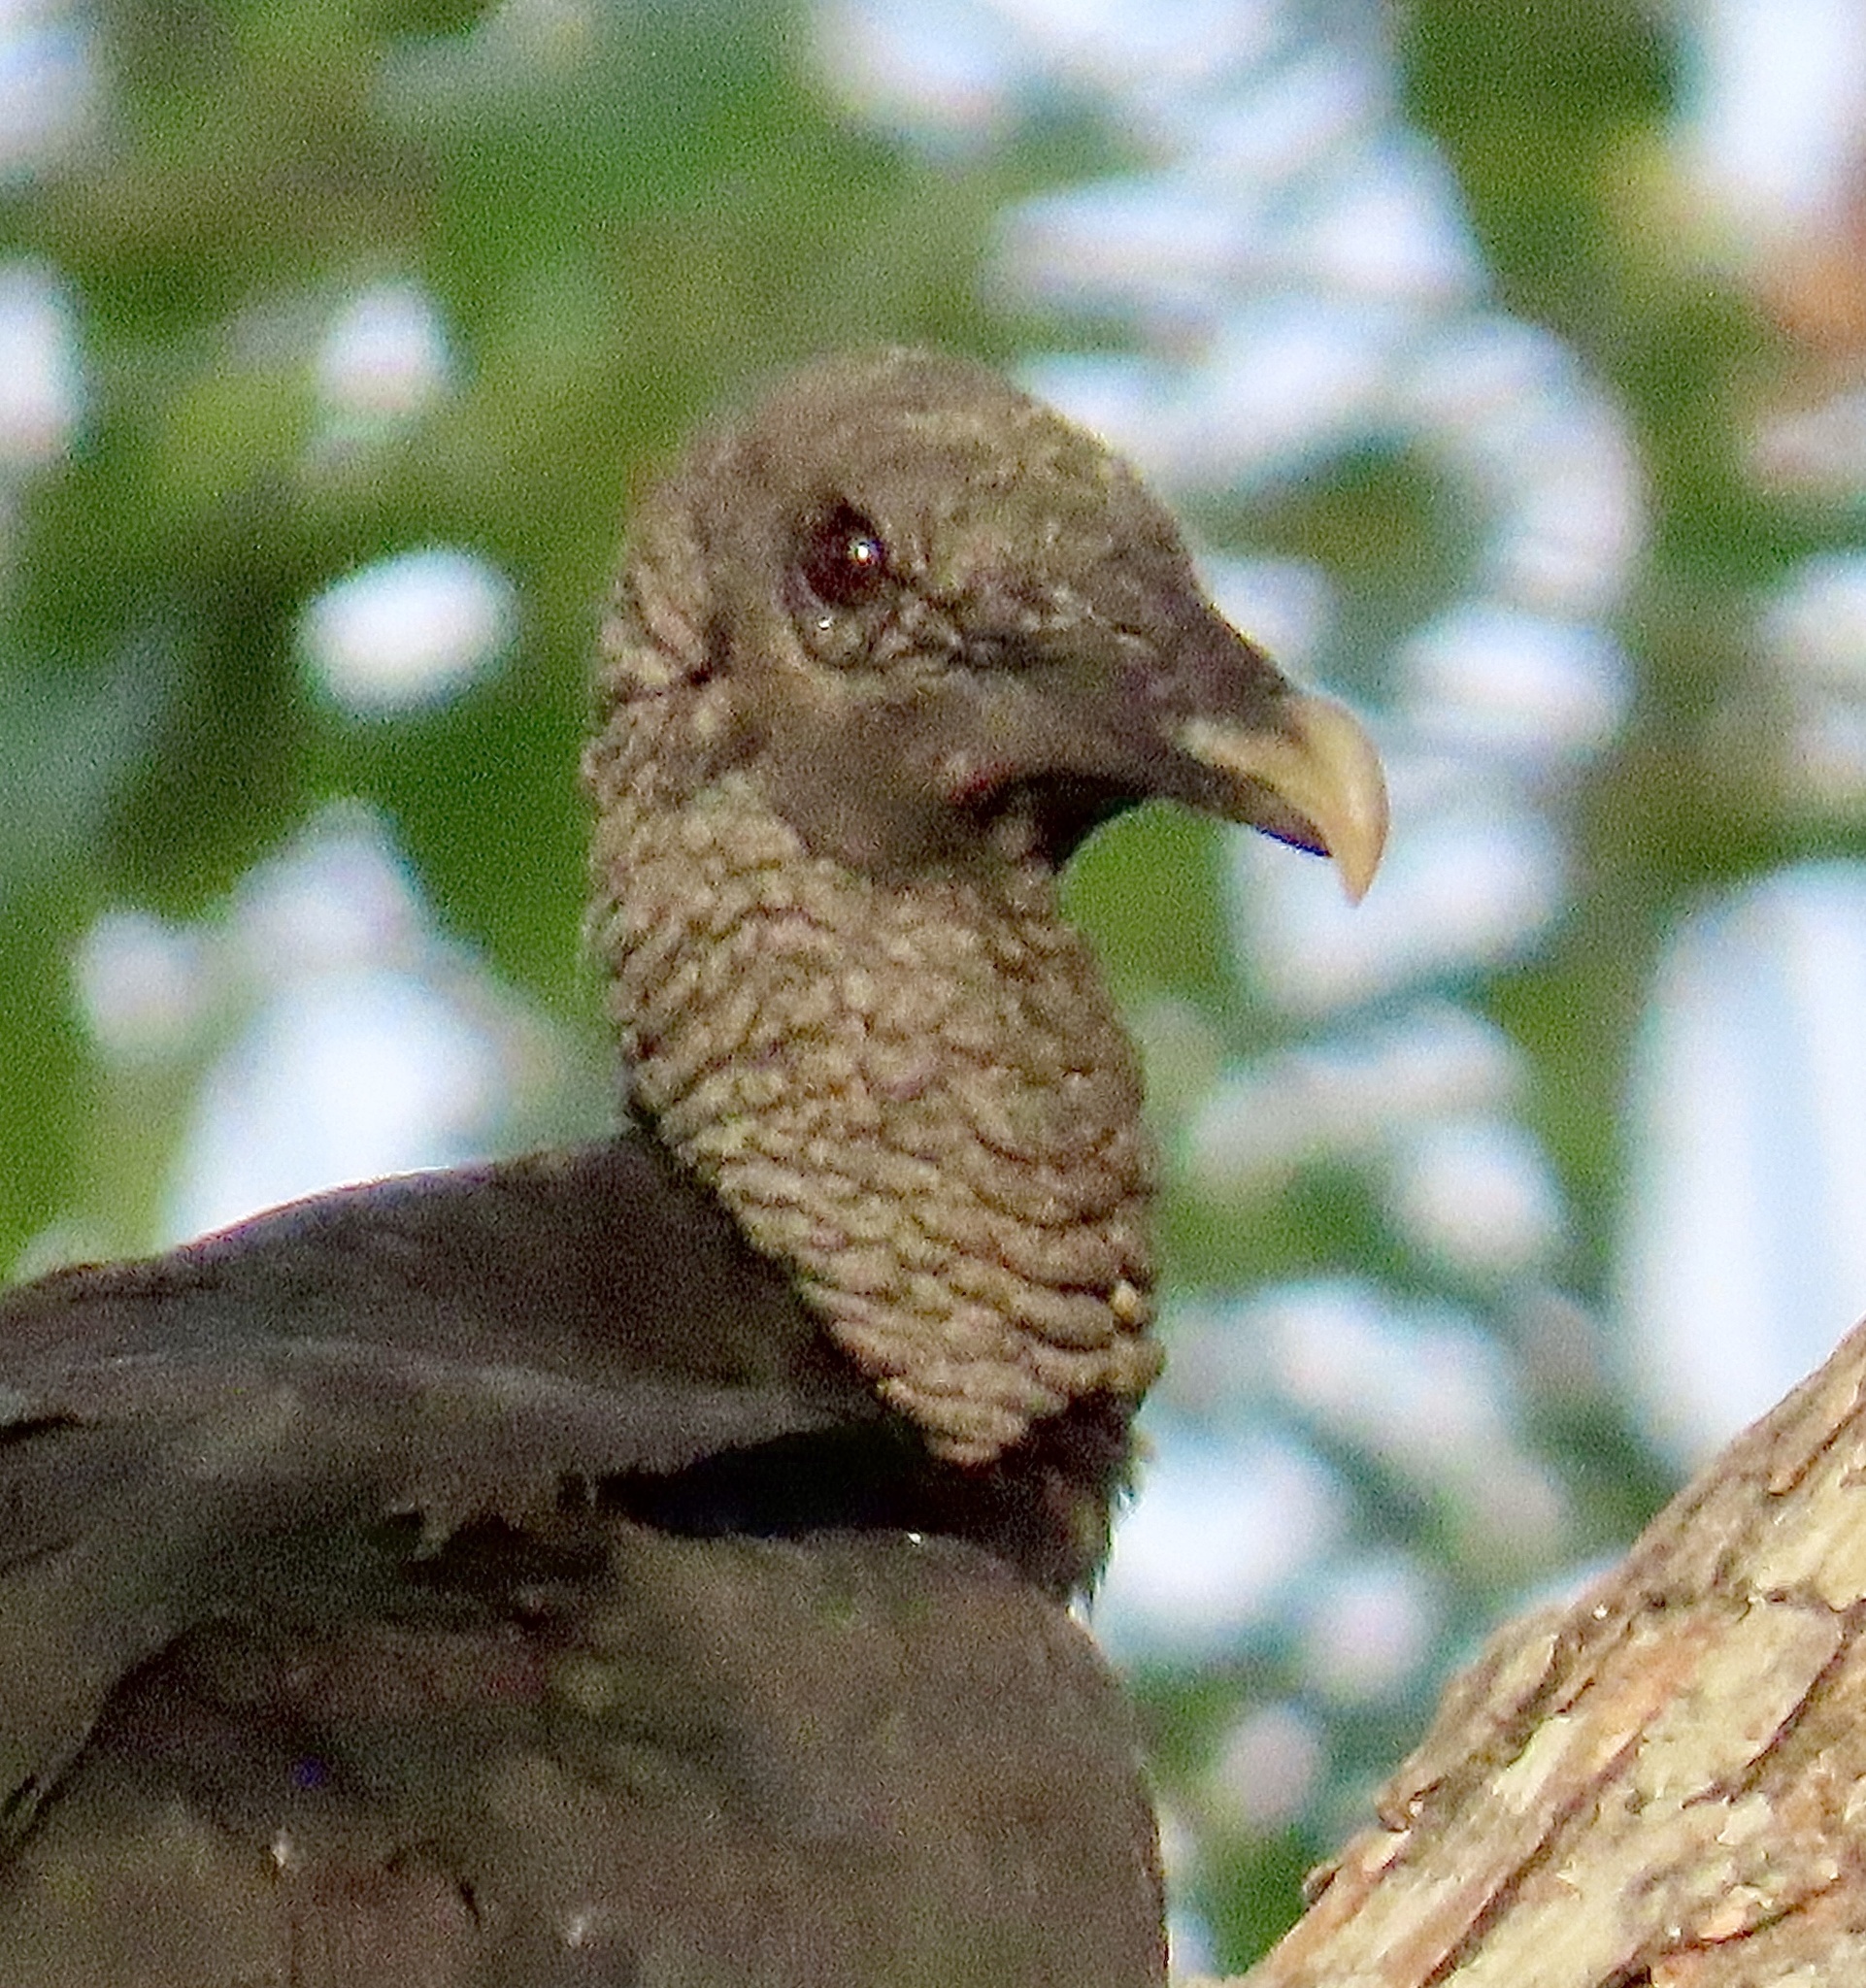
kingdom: Animalia
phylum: Chordata
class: Aves
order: Accipitriformes
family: Cathartidae
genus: Coragyps
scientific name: Coragyps atratus
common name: Black vulture
